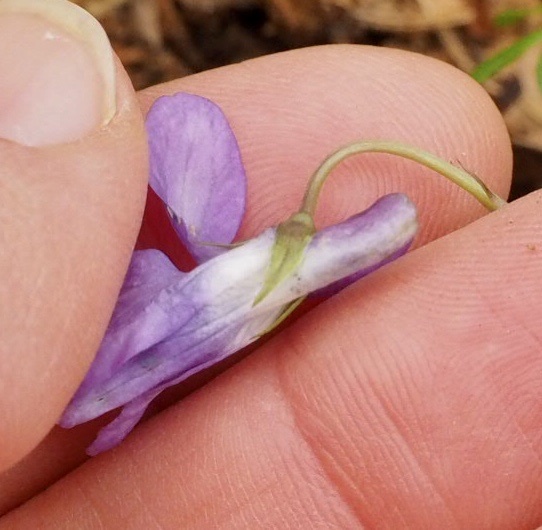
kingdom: Plantae
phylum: Tracheophyta
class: Magnoliopsida
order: Malpighiales
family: Violaceae
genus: Viola
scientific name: Viola riviniana
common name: Common dog-violet
